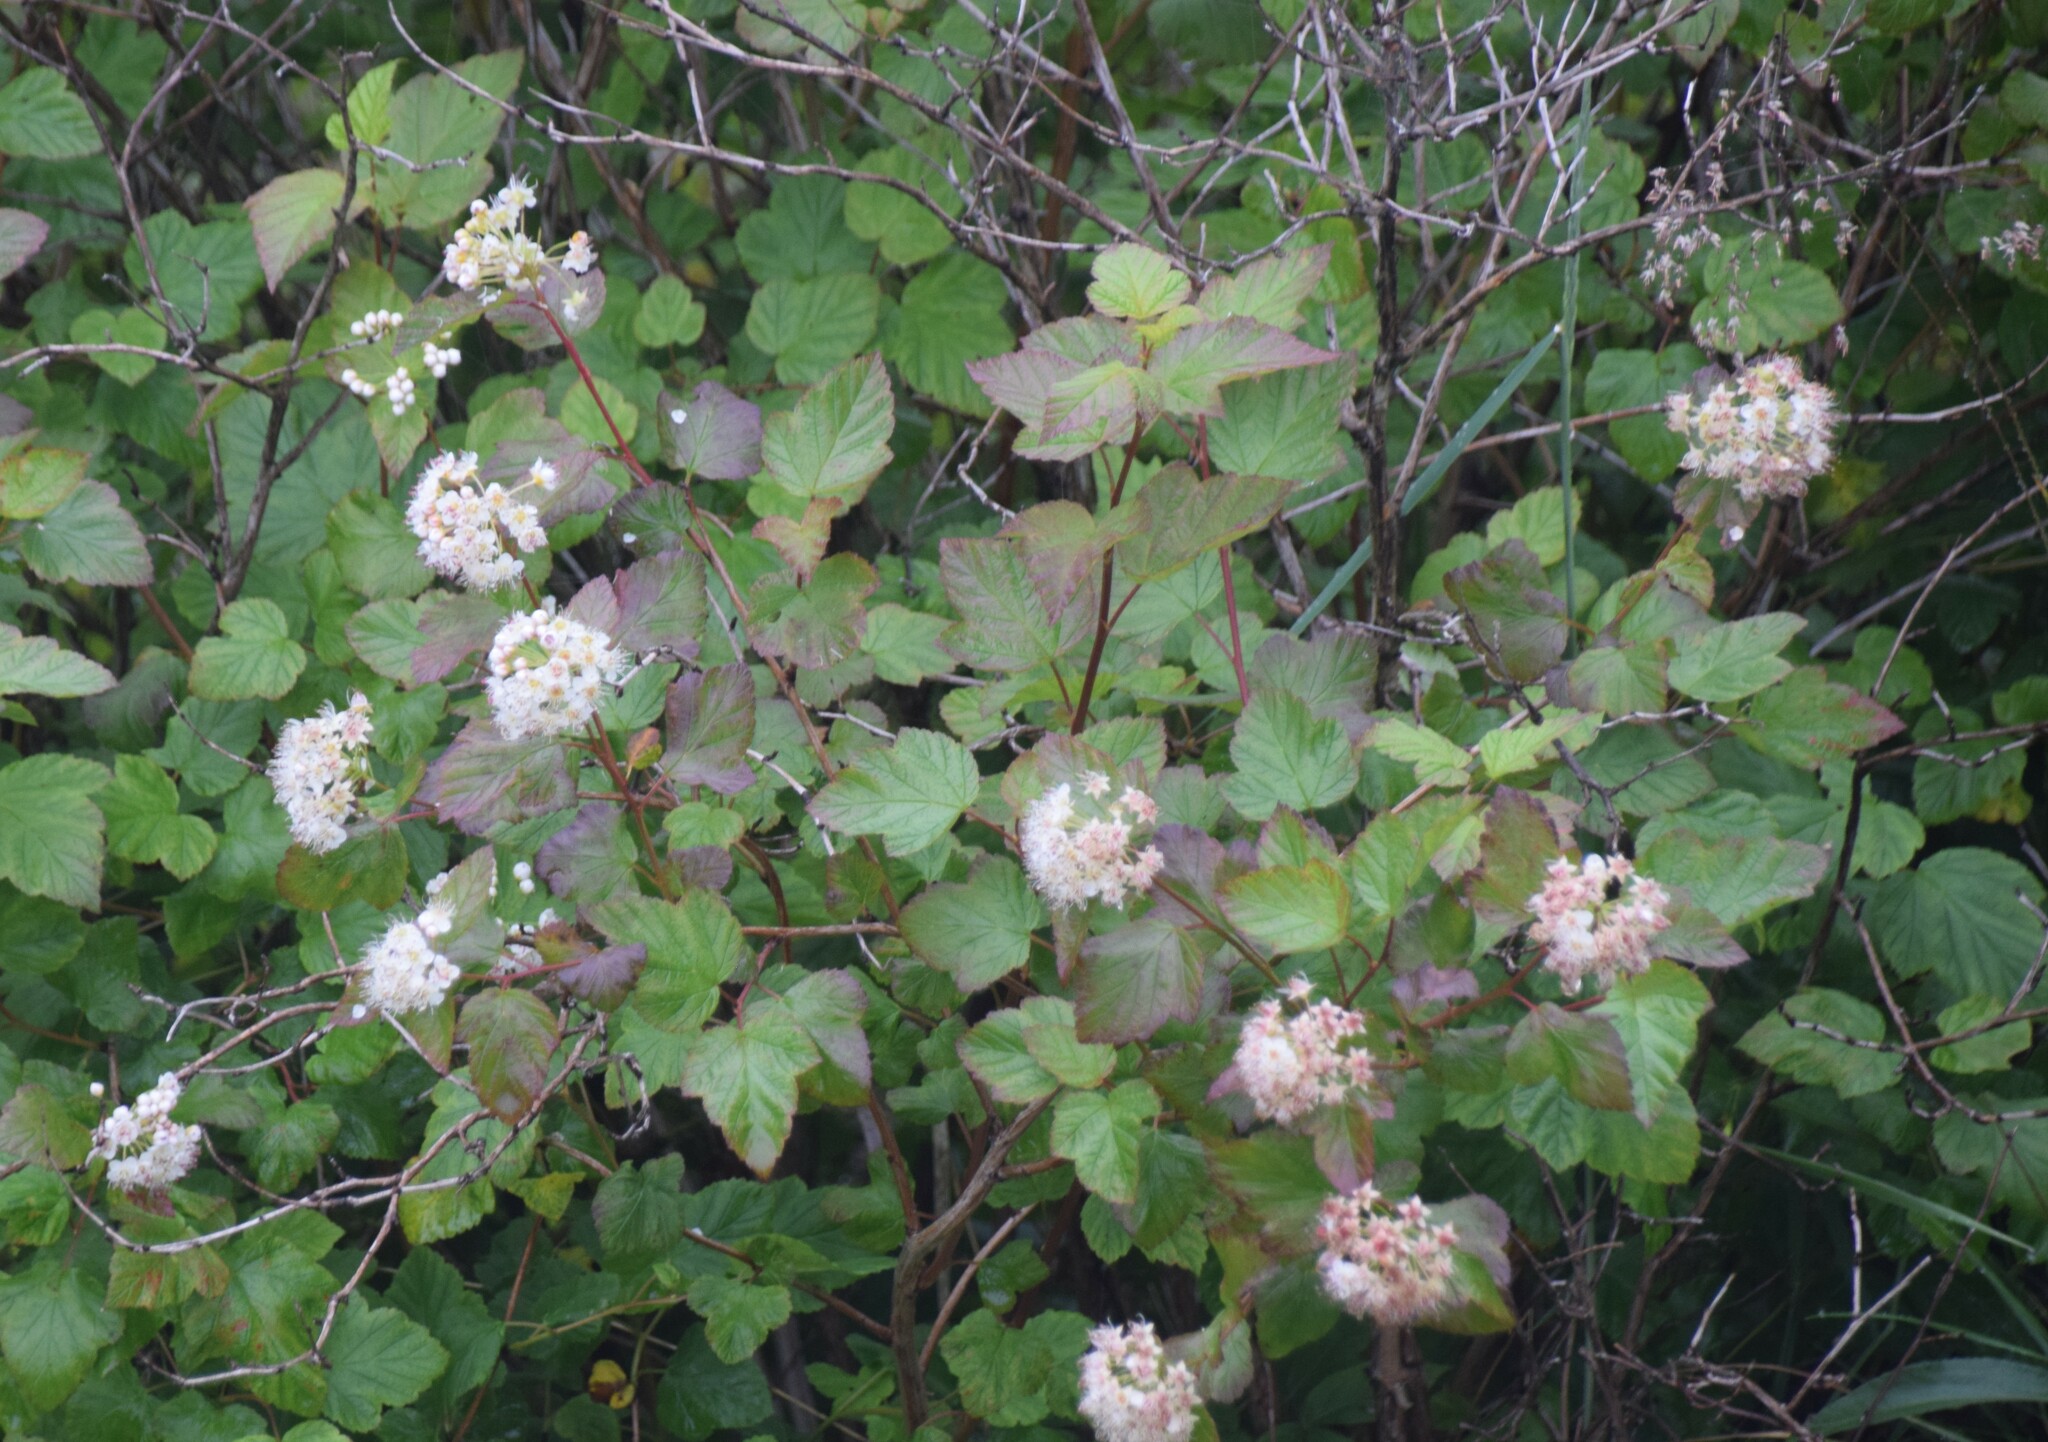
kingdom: Plantae
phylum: Tracheophyta
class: Magnoliopsida
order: Rosales
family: Rosaceae
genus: Physocarpus
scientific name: Physocarpus opulifolius
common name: Ninebark
